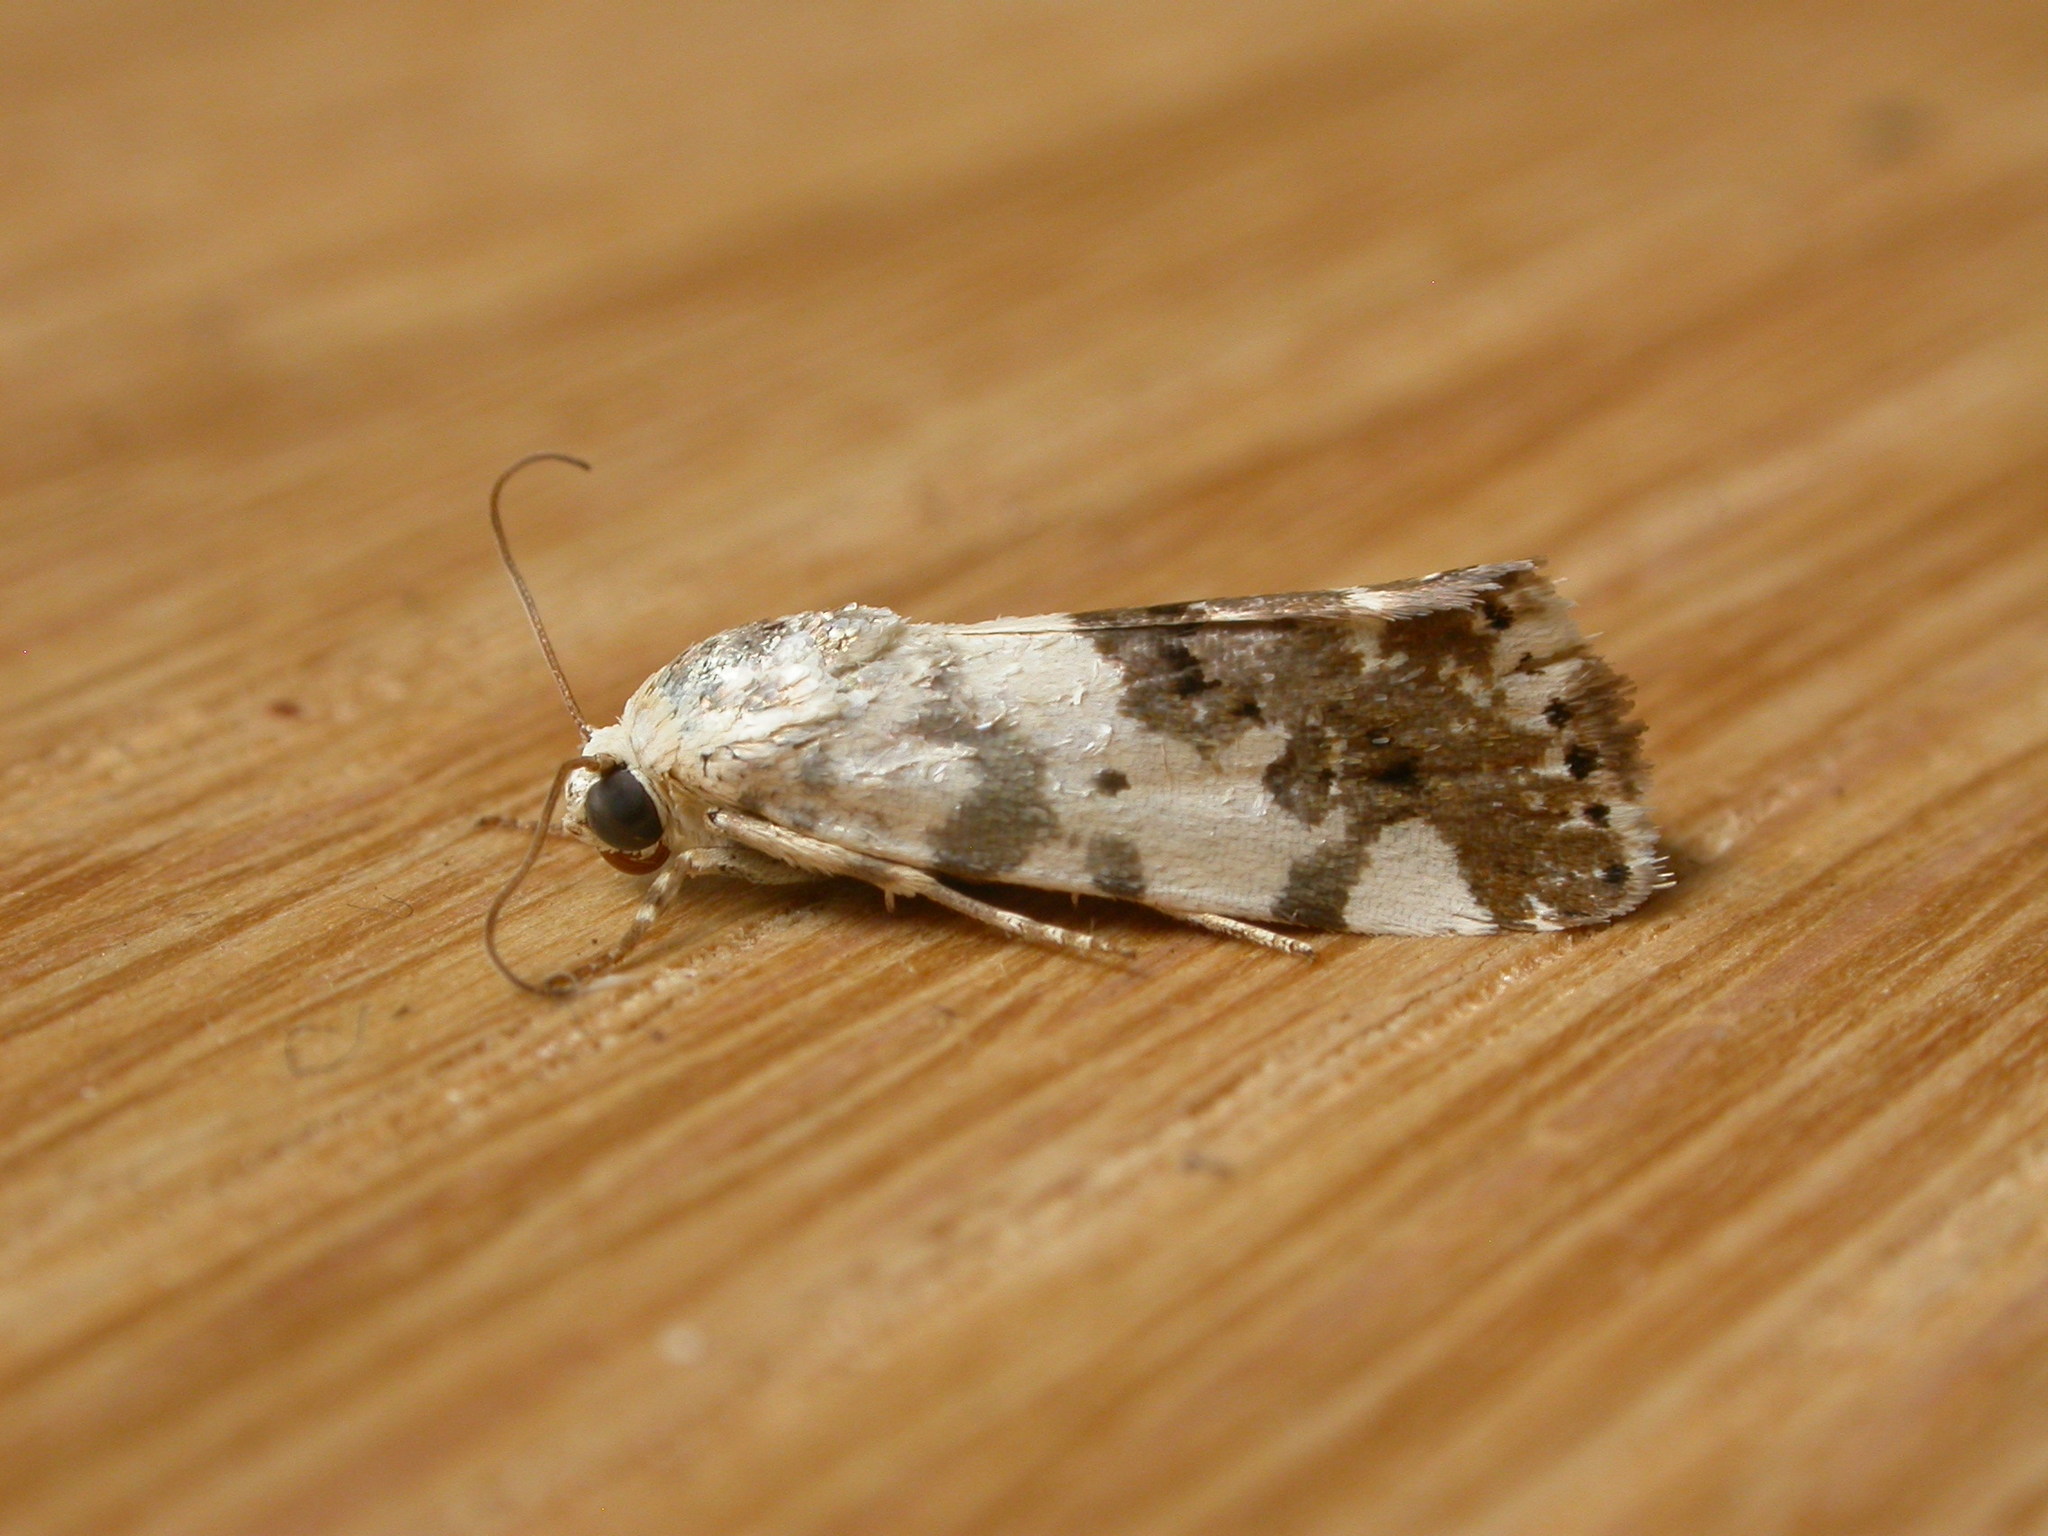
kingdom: Animalia
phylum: Arthropoda
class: Insecta
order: Lepidoptera
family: Noctuidae
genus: Acontia
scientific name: Acontia nivipicta
